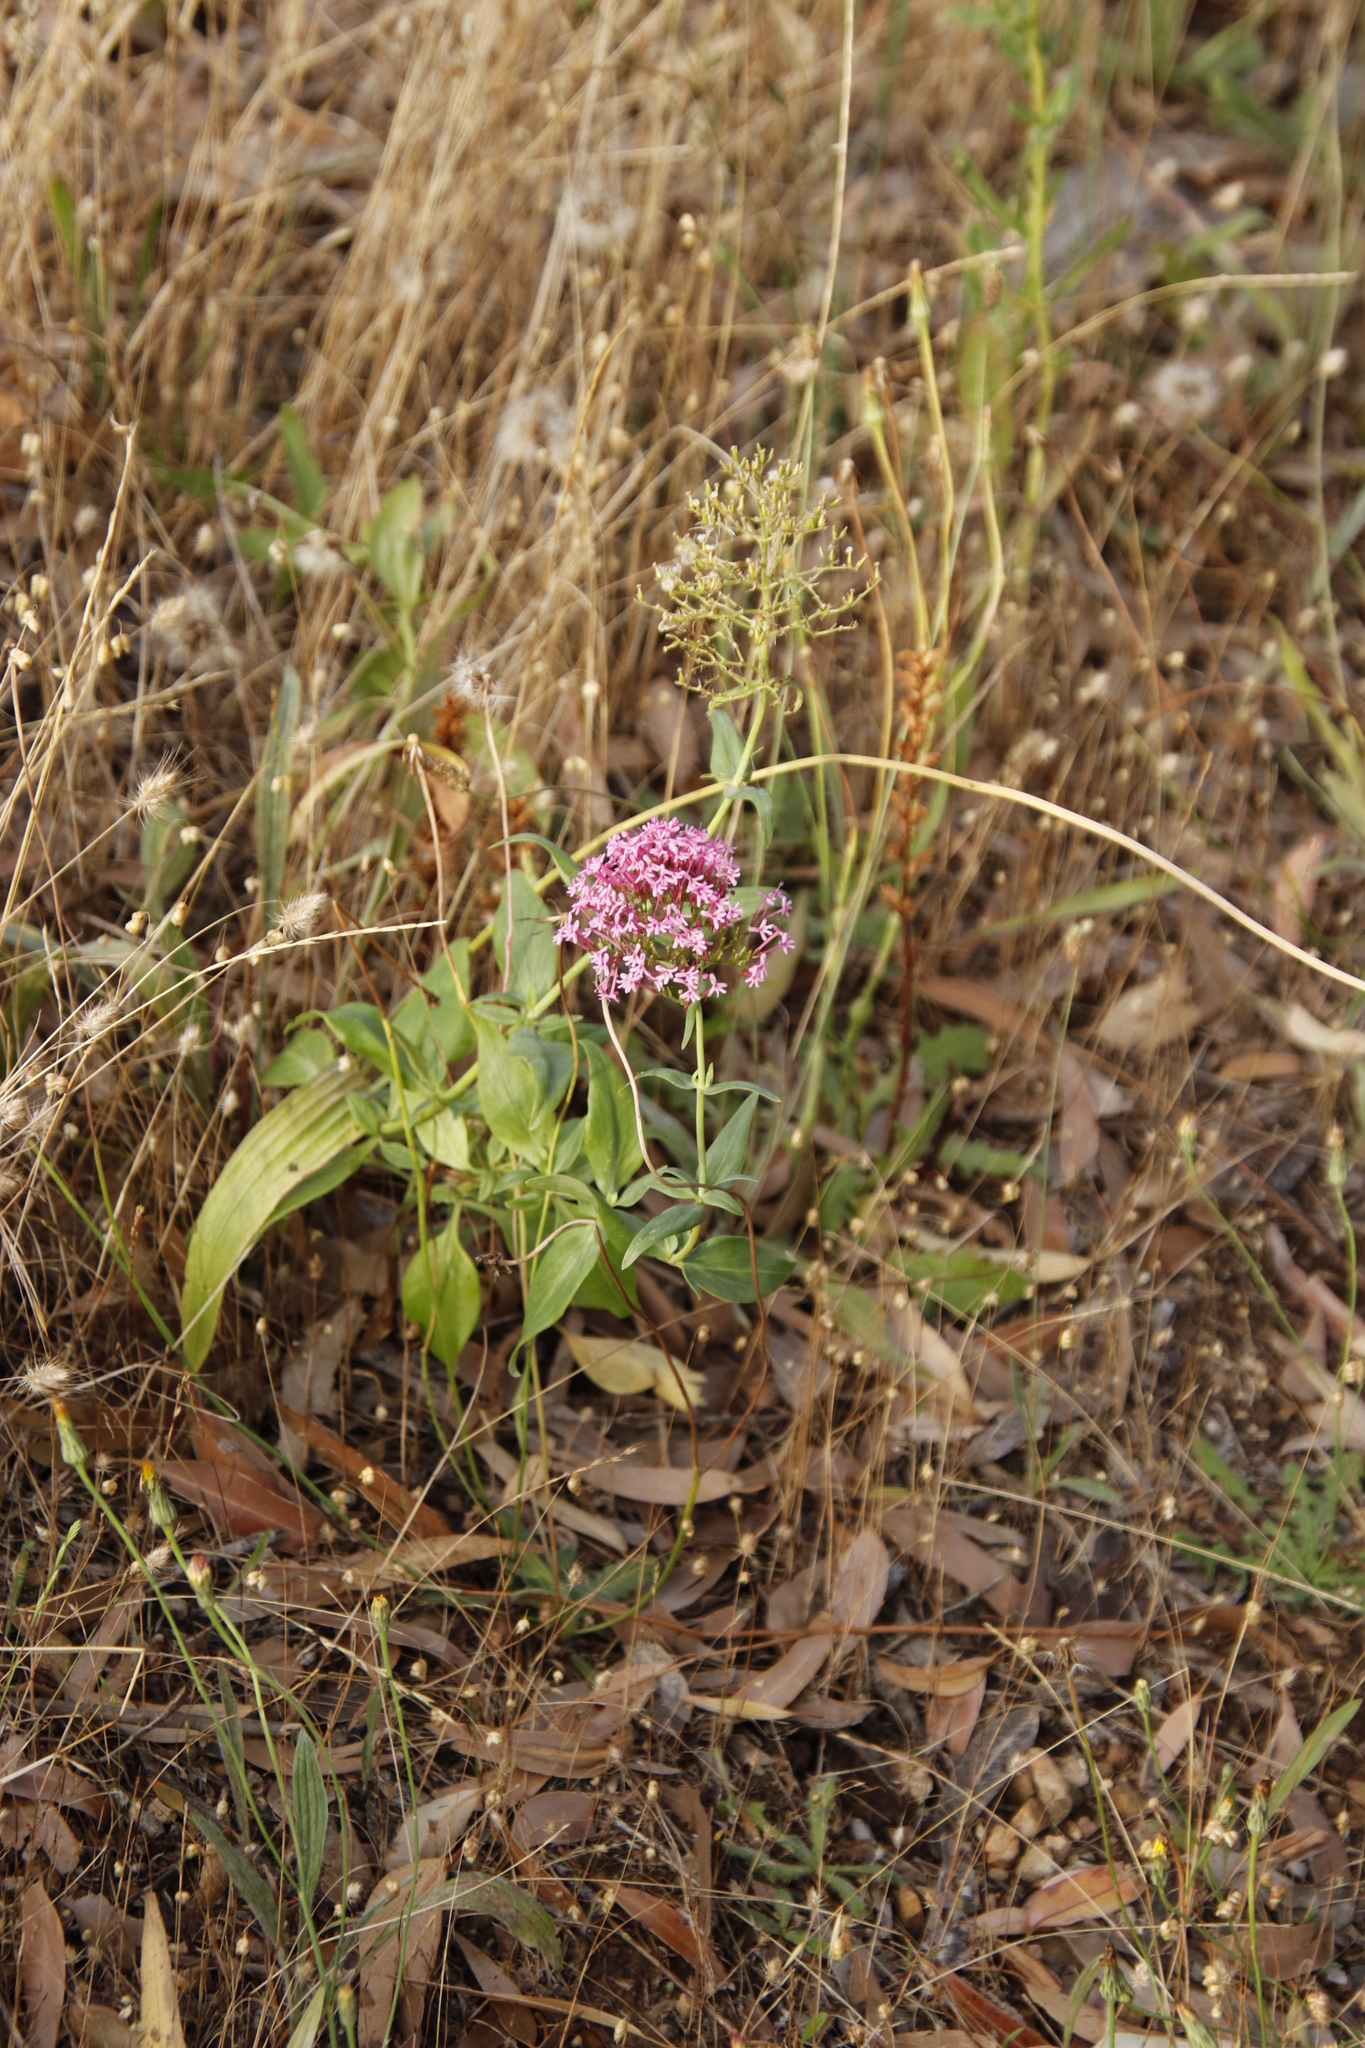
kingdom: Plantae
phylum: Tracheophyta
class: Magnoliopsida
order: Dipsacales
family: Caprifoliaceae
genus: Centranthus
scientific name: Centranthus ruber
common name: Red valerian
